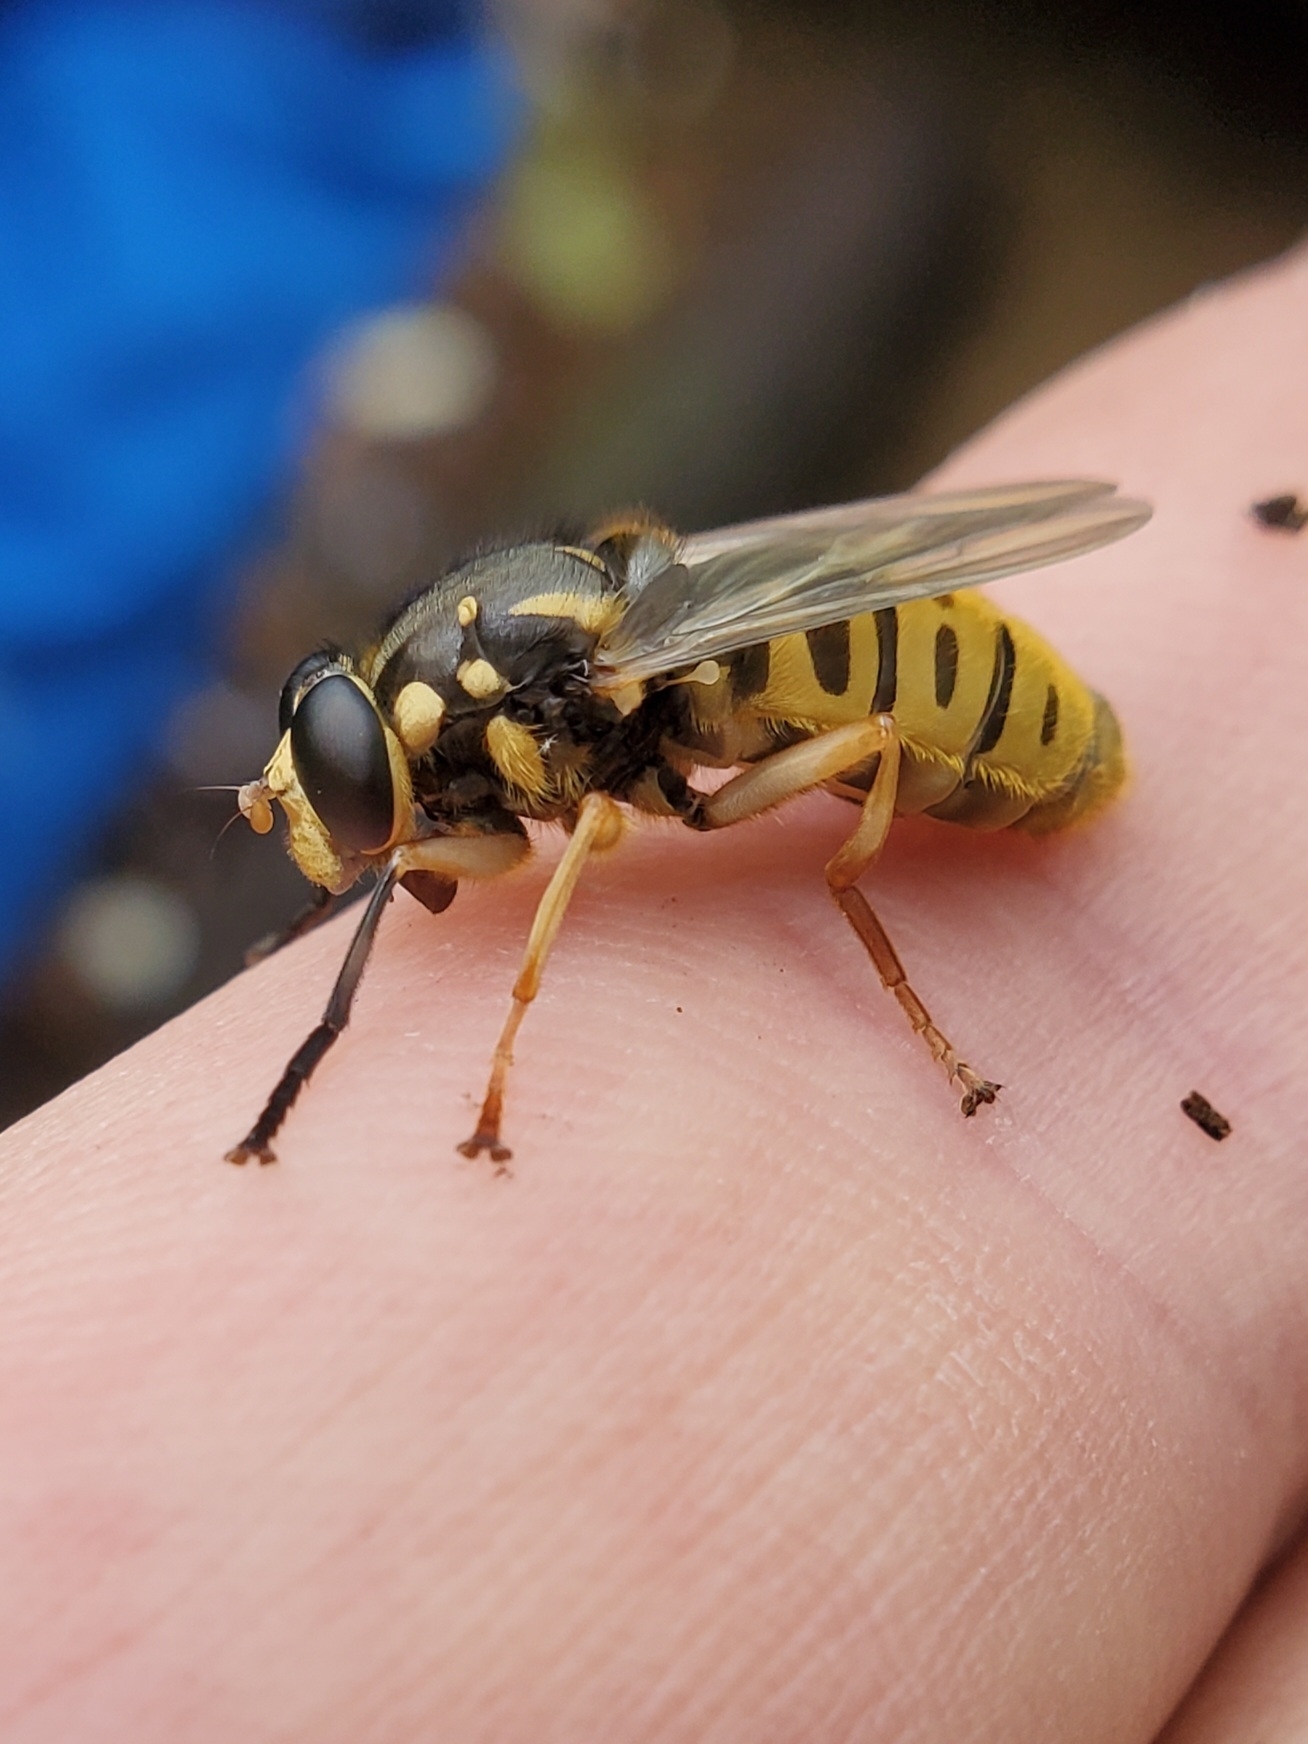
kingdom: Animalia
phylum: Arthropoda
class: Insecta
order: Diptera
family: Syrphidae
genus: Temnostoma
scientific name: Temnostoma alternans
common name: Wasp-like falsehorn
